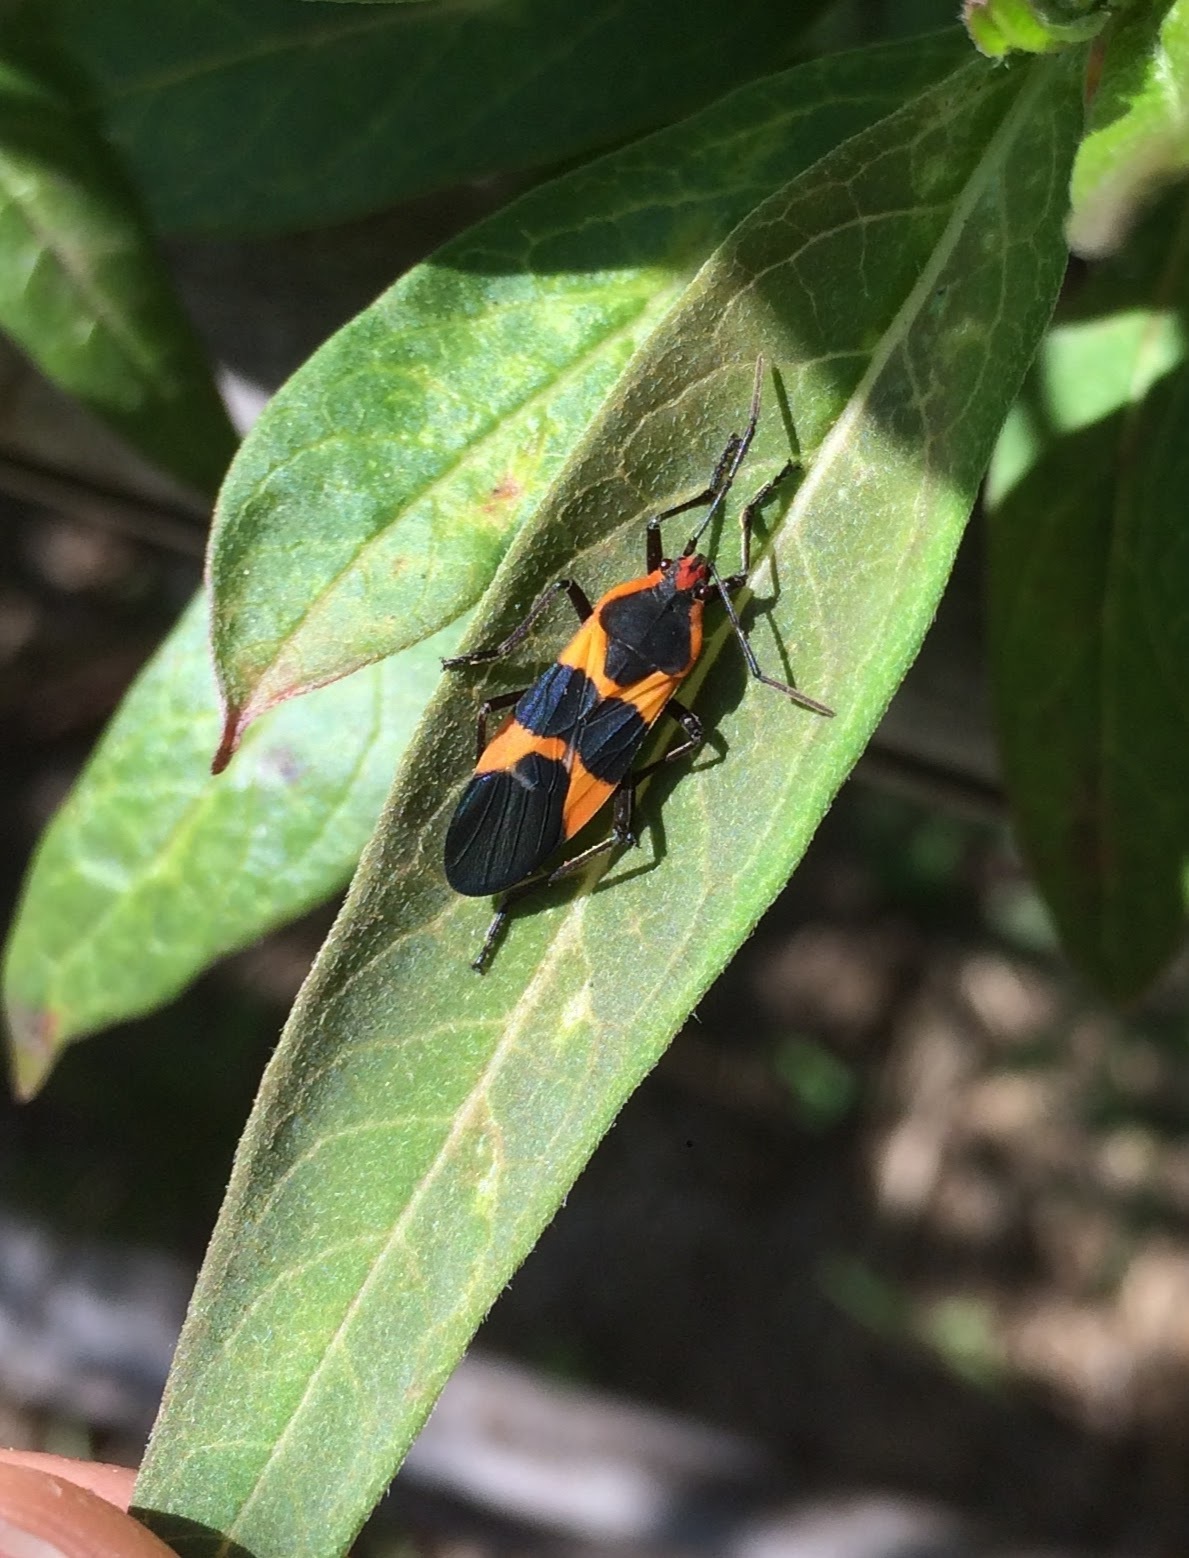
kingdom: Animalia
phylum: Arthropoda
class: Insecta
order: Hemiptera
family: Lygaeidae
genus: Oncopeltus
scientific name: Oncopeltus fasciatus
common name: Large milkweed bug
